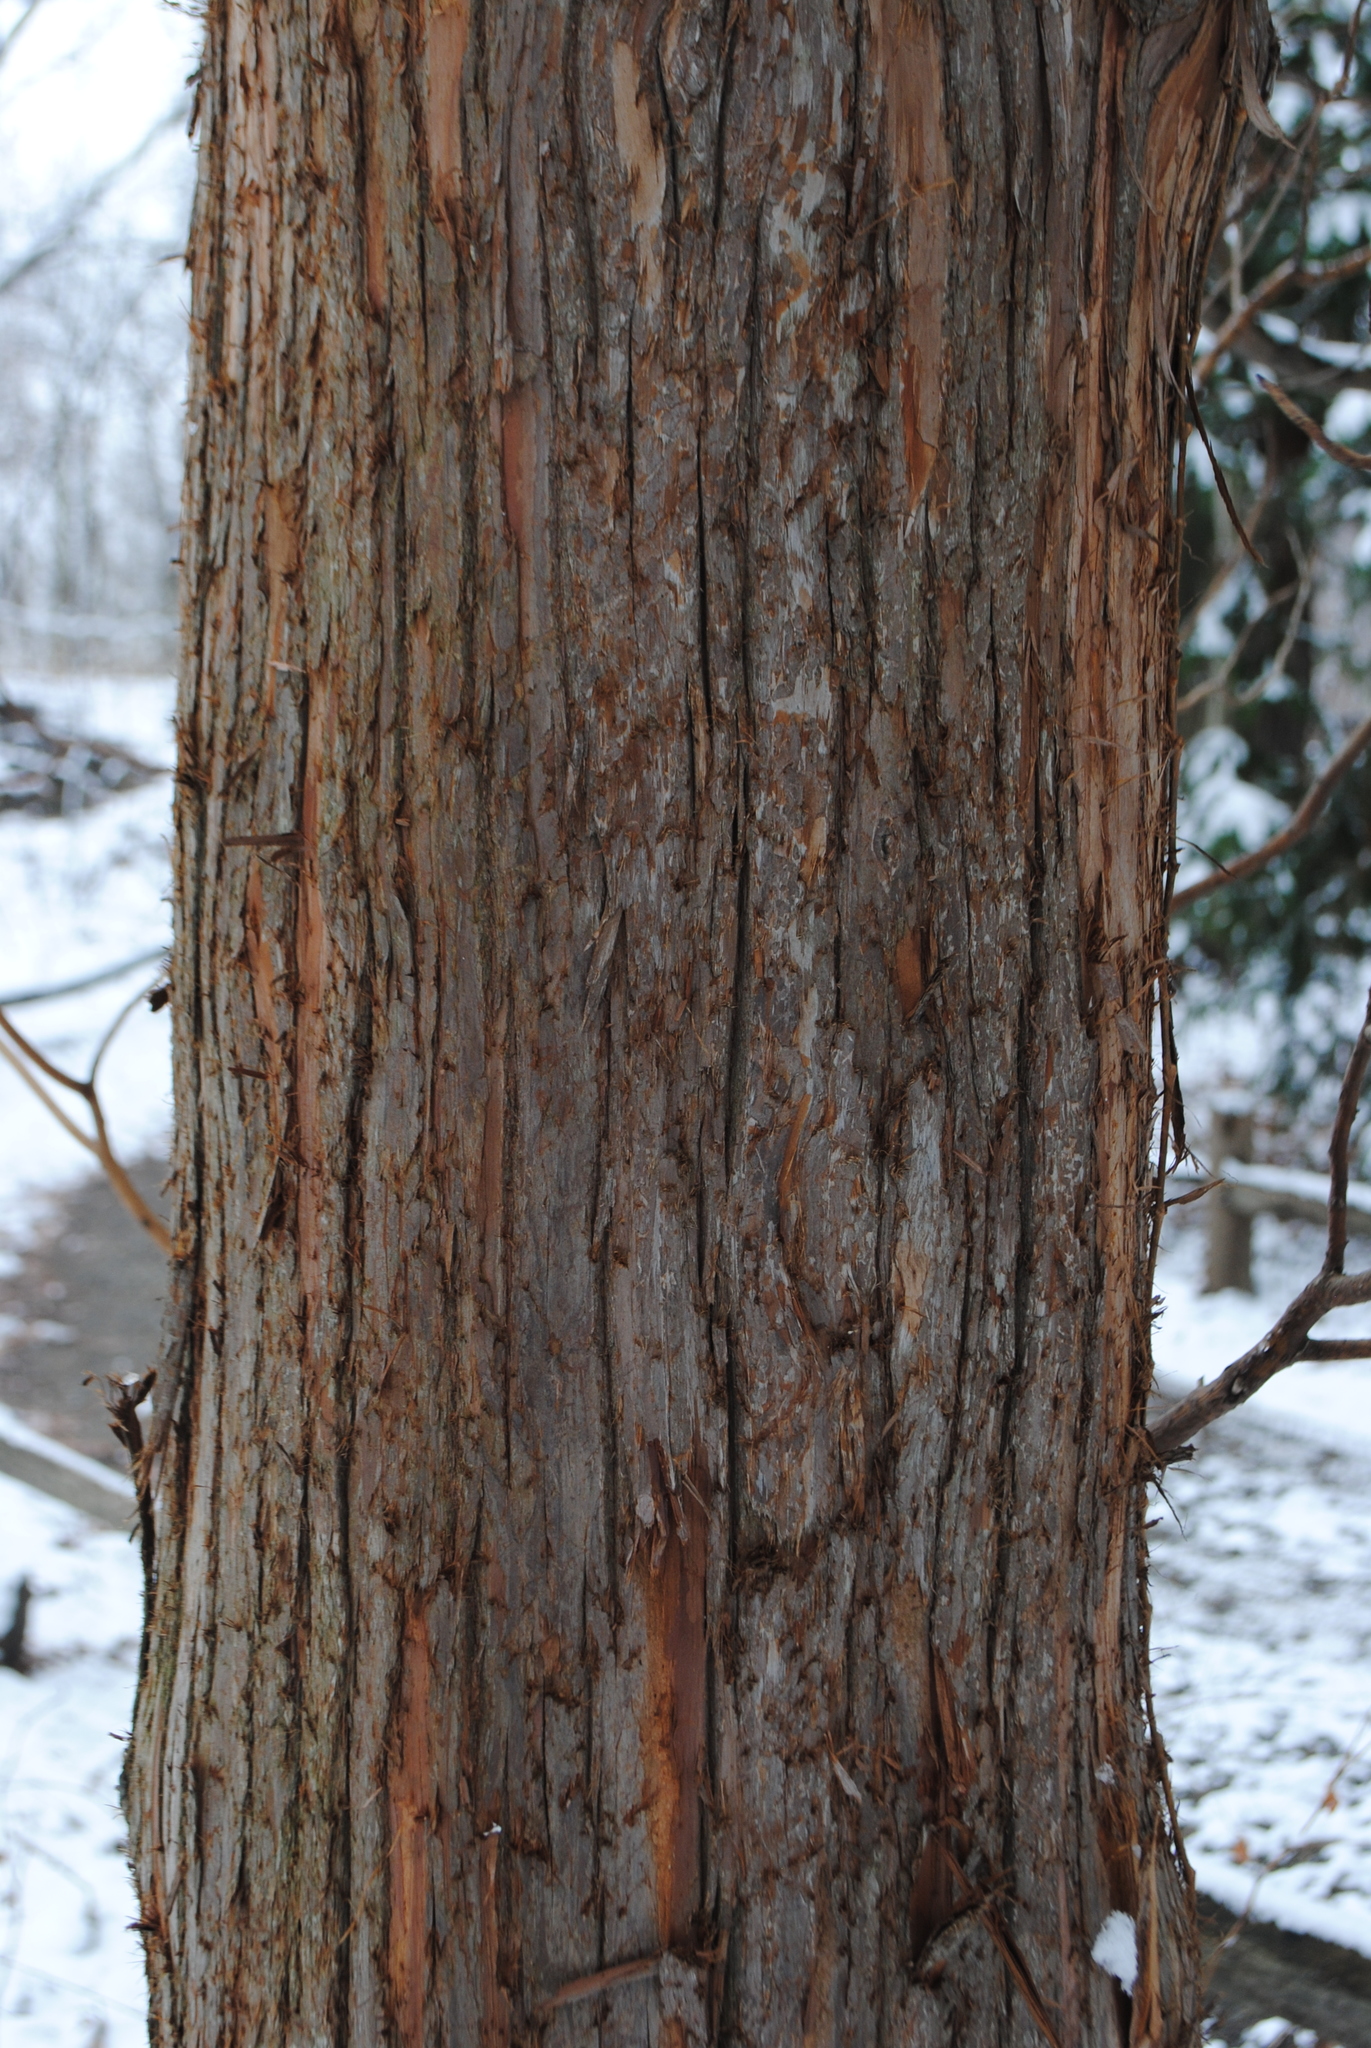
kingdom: Plantae
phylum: Tracheophyta
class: Pinopsida
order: Pinales
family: Cupressaceae
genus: Cryptomeria
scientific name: Cryptomeria japonica
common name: Japanese cedar
